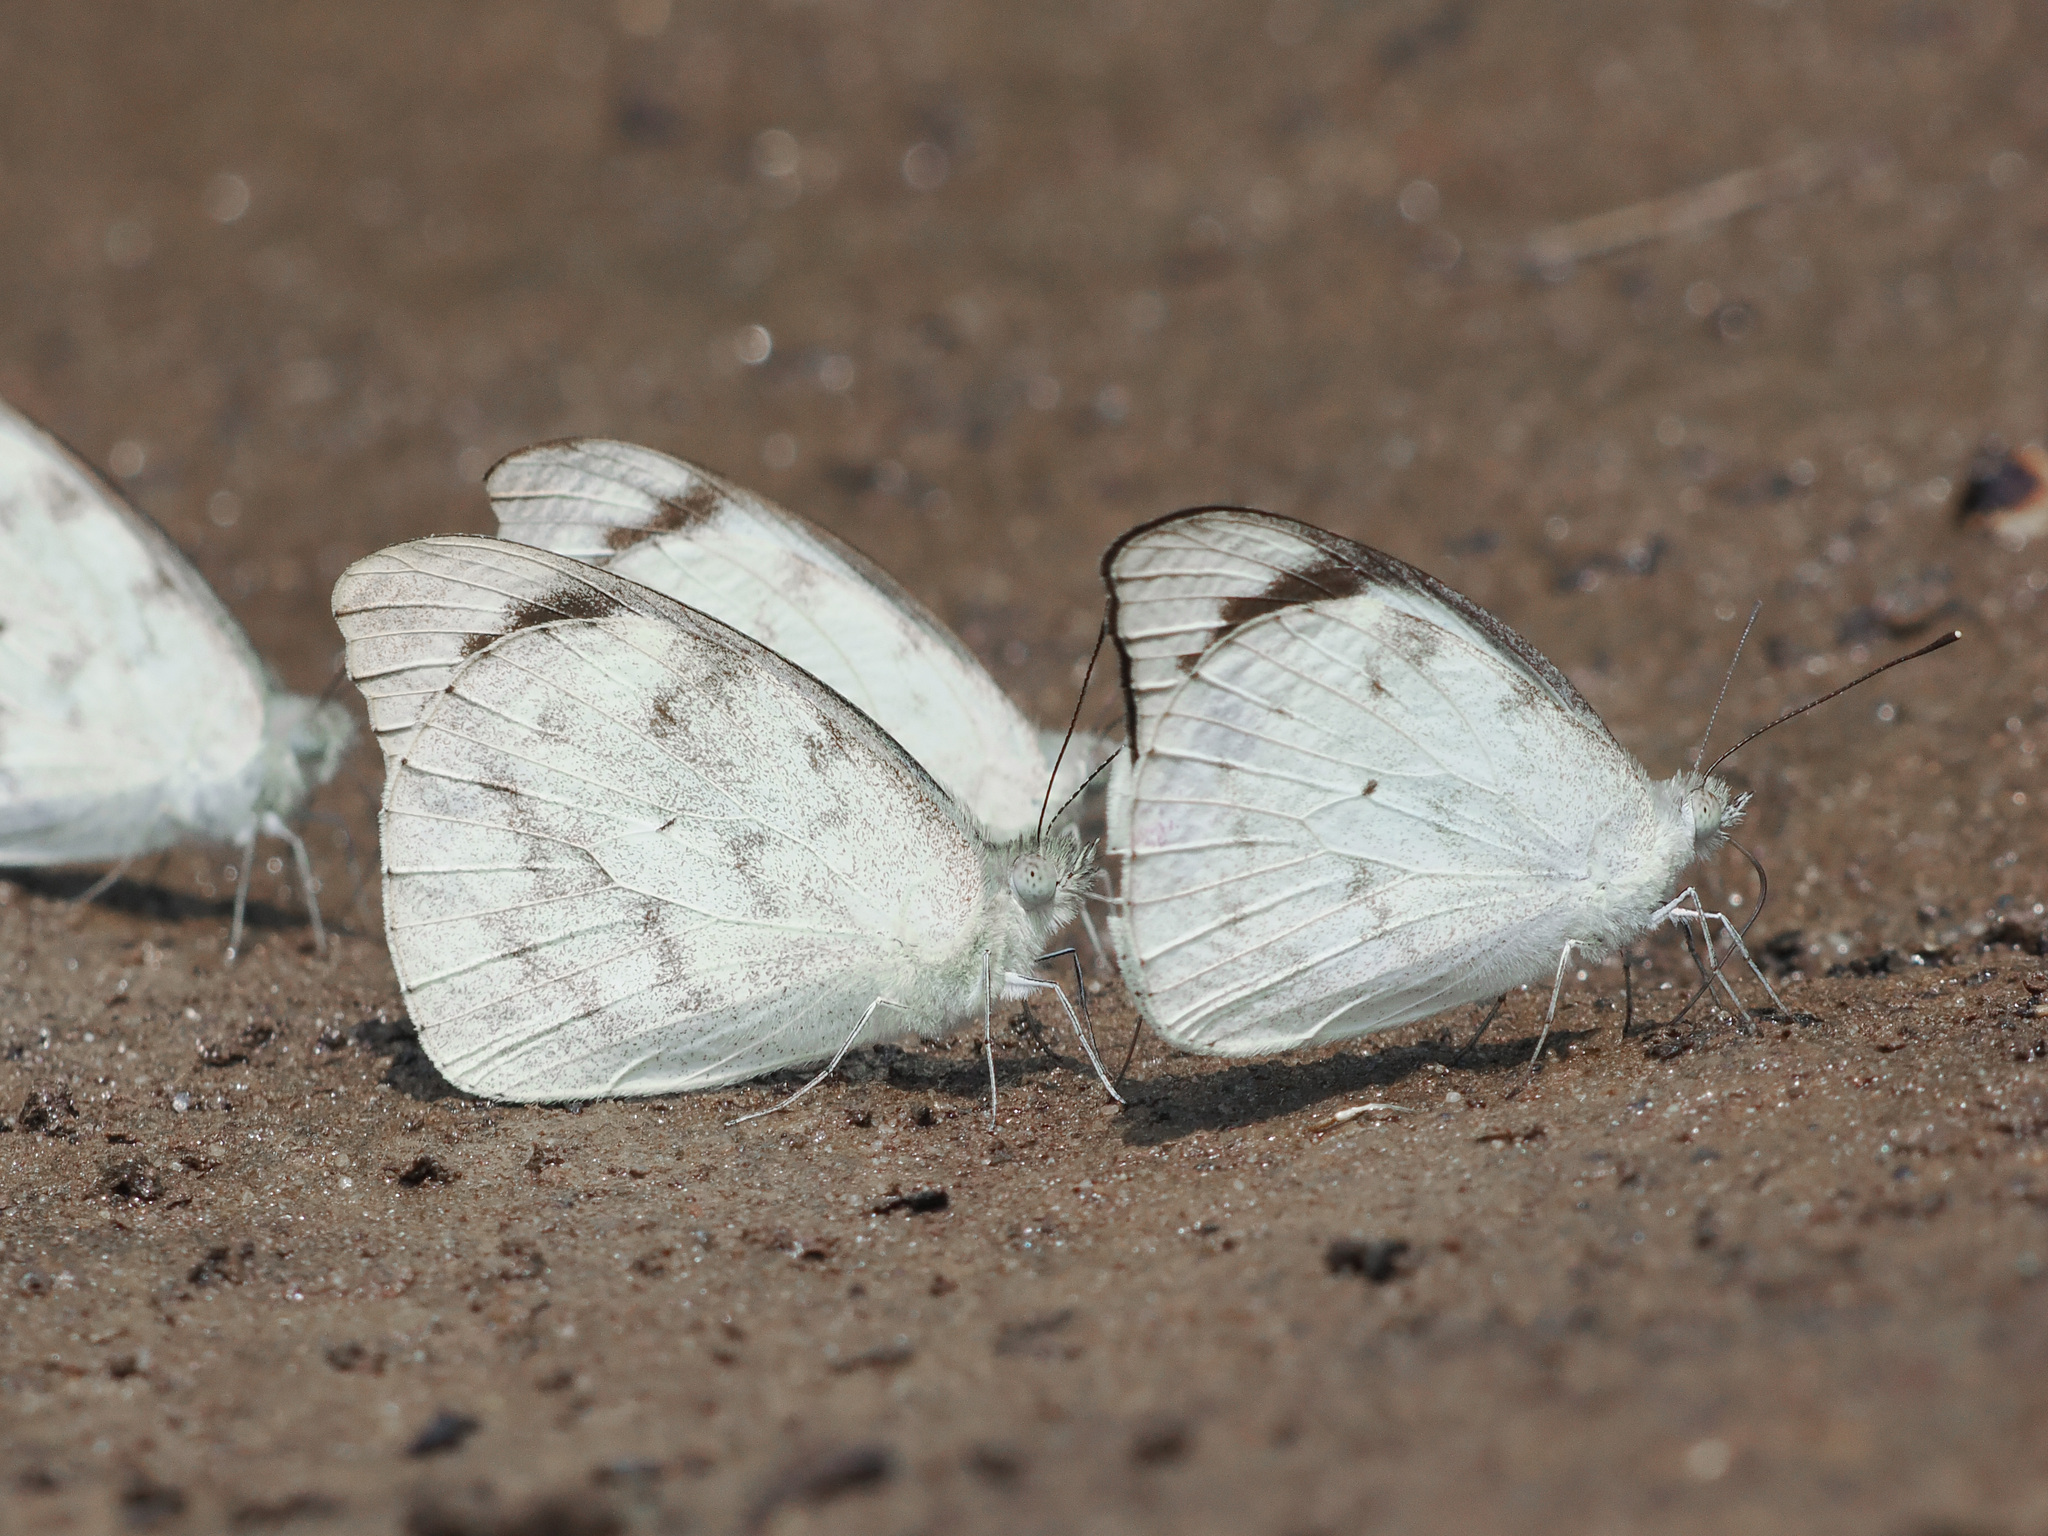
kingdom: Animalia
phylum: Arthropoda
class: Insecta
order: Lepidoptera
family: Pieridae
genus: Appias
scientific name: Appias indra
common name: Plain puffin
